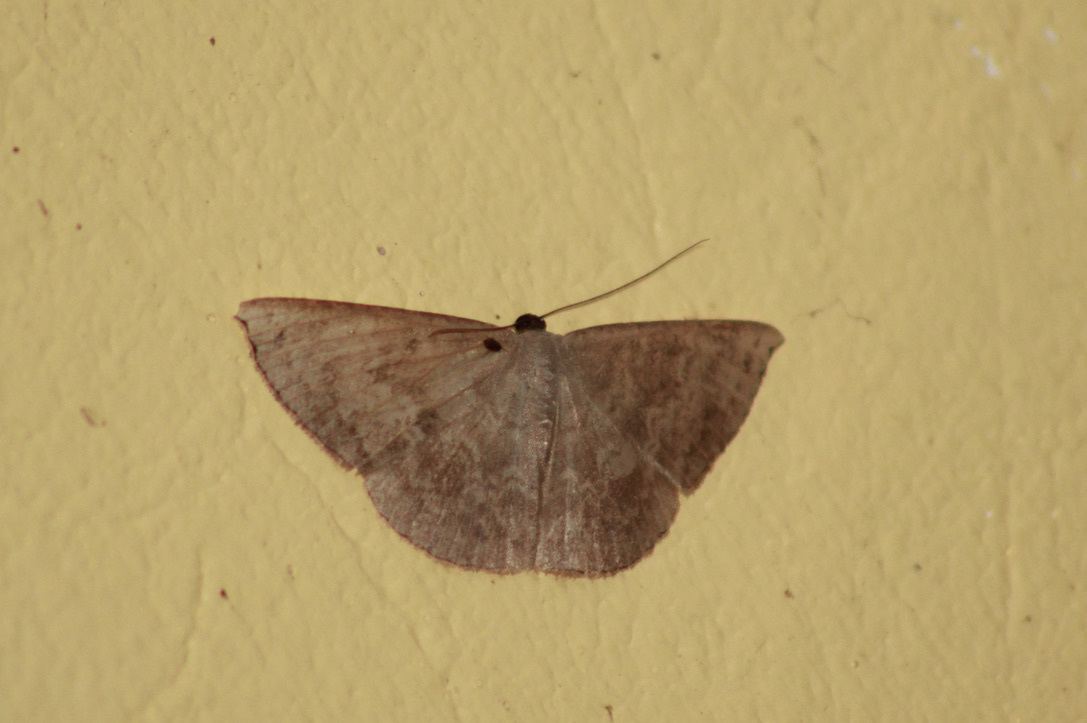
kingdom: Animalia
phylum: Arthropoda
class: Insecta
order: Lepidoptera
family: Geometridae
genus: Pycnoneura
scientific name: Pycnoneura protrusilinea
